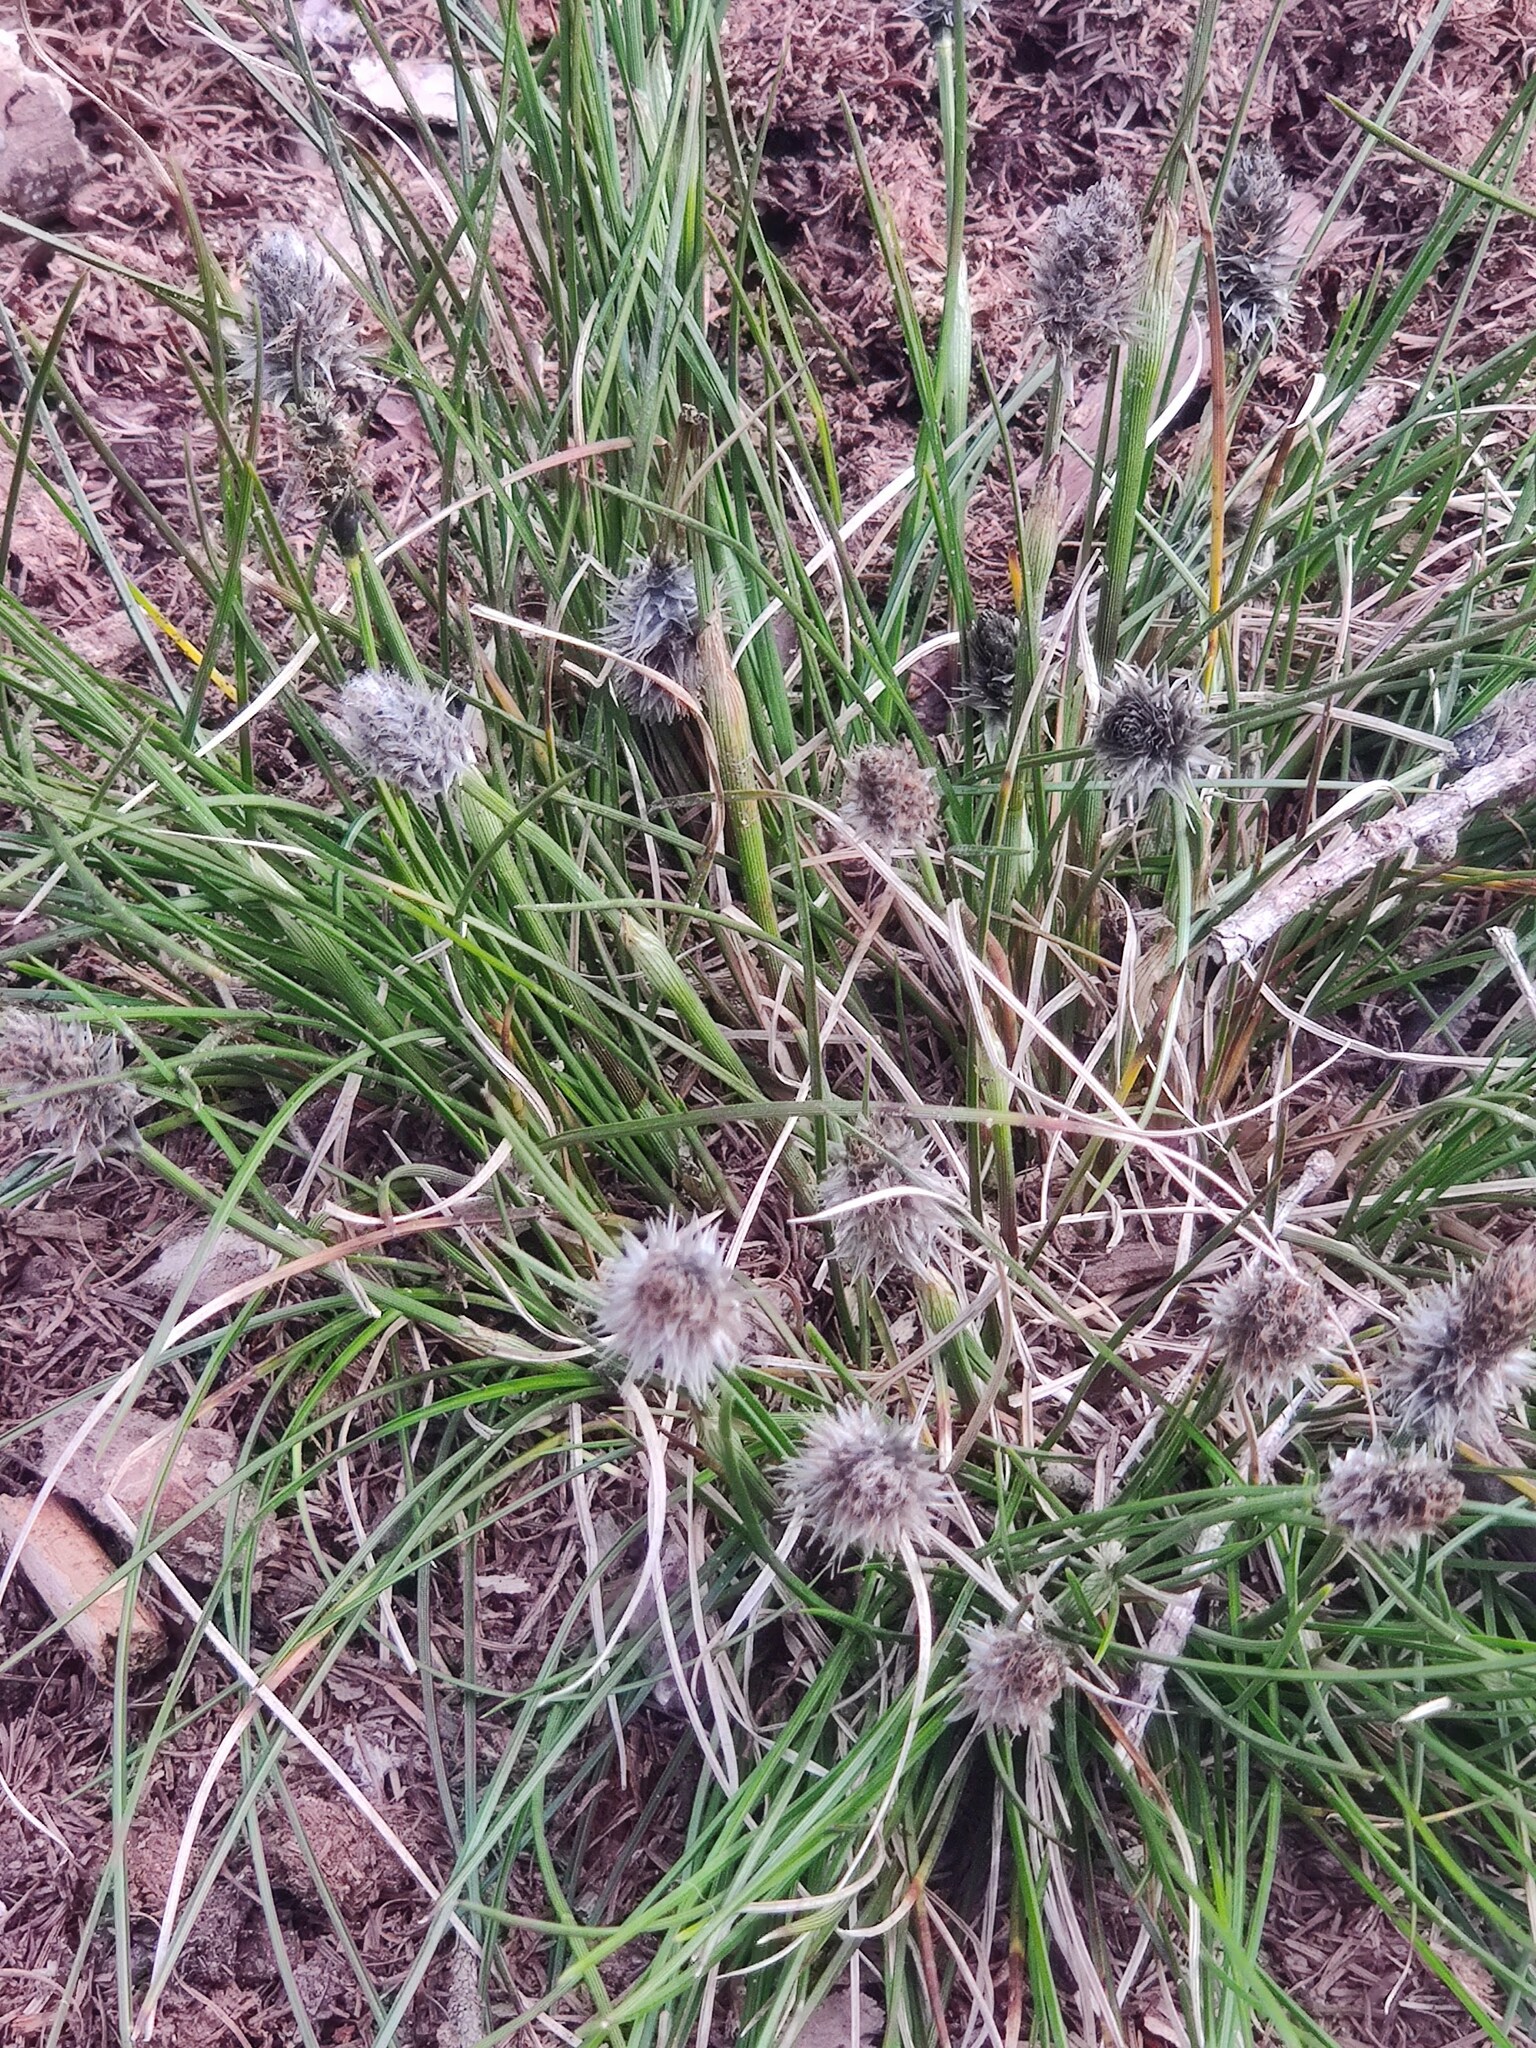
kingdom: Plantae
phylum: Tracheophyta
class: Liliopsida
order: Poales
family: Cyperaceae
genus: Eriophorum
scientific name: Eriophorum vaginatum
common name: Hare's-tail cottongrass
